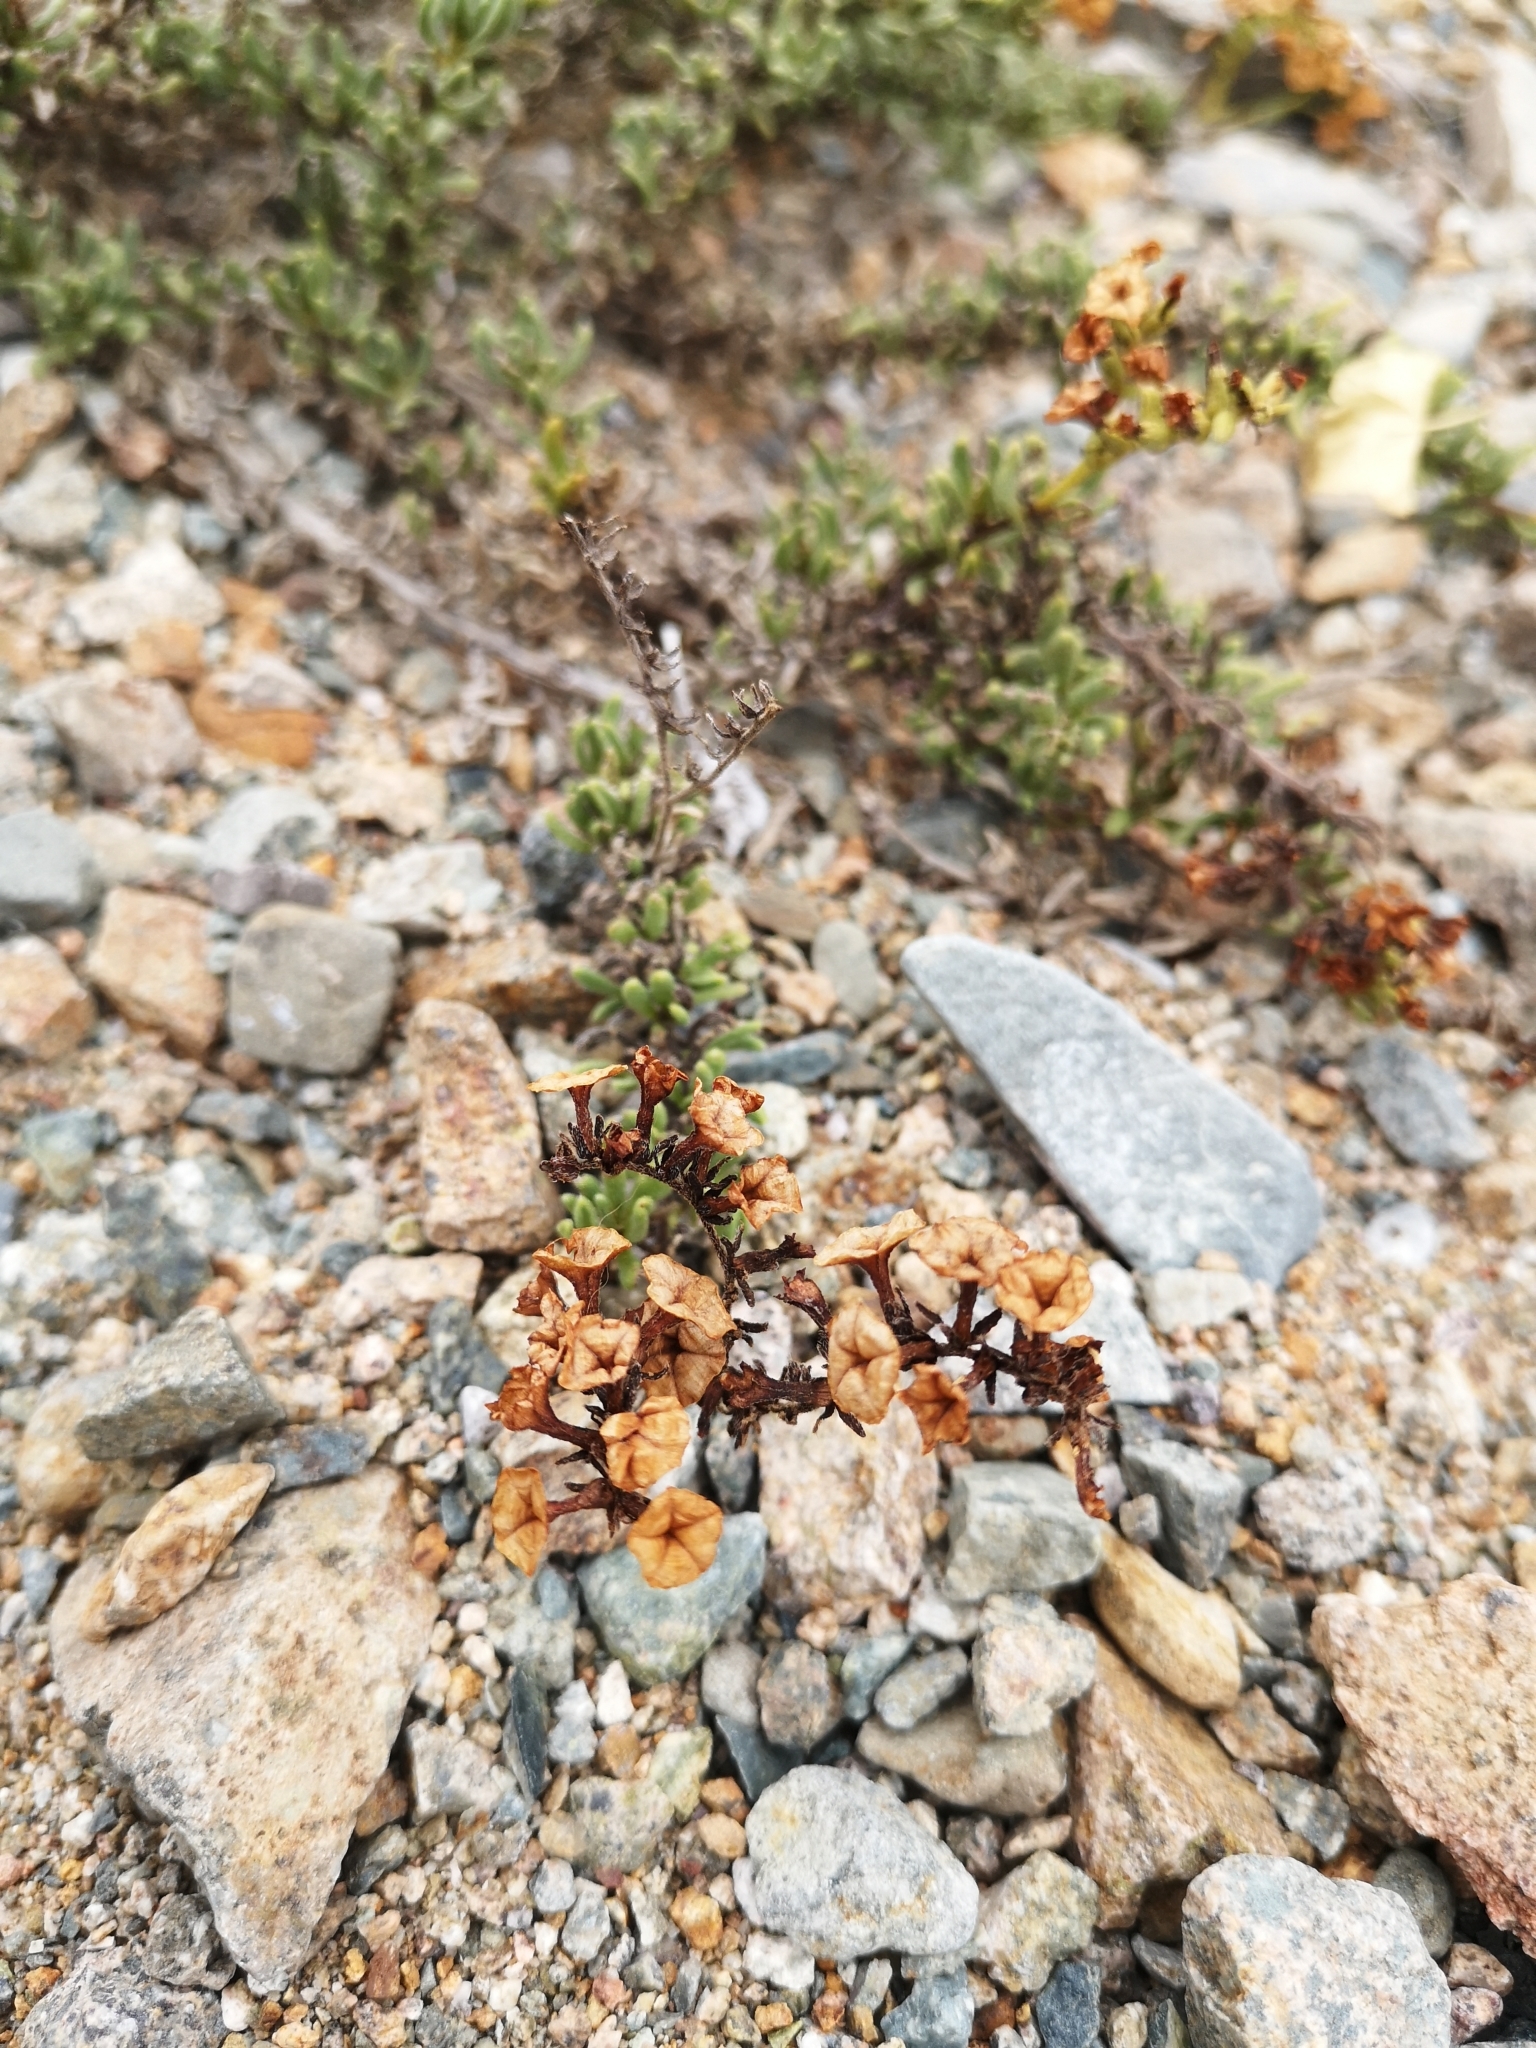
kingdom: Plantae
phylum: Tracheophyta
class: Magnoliopsida
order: Boraginales
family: Heliotropiaceae
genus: Heliotropium
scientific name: Heliotropium linariifolium
